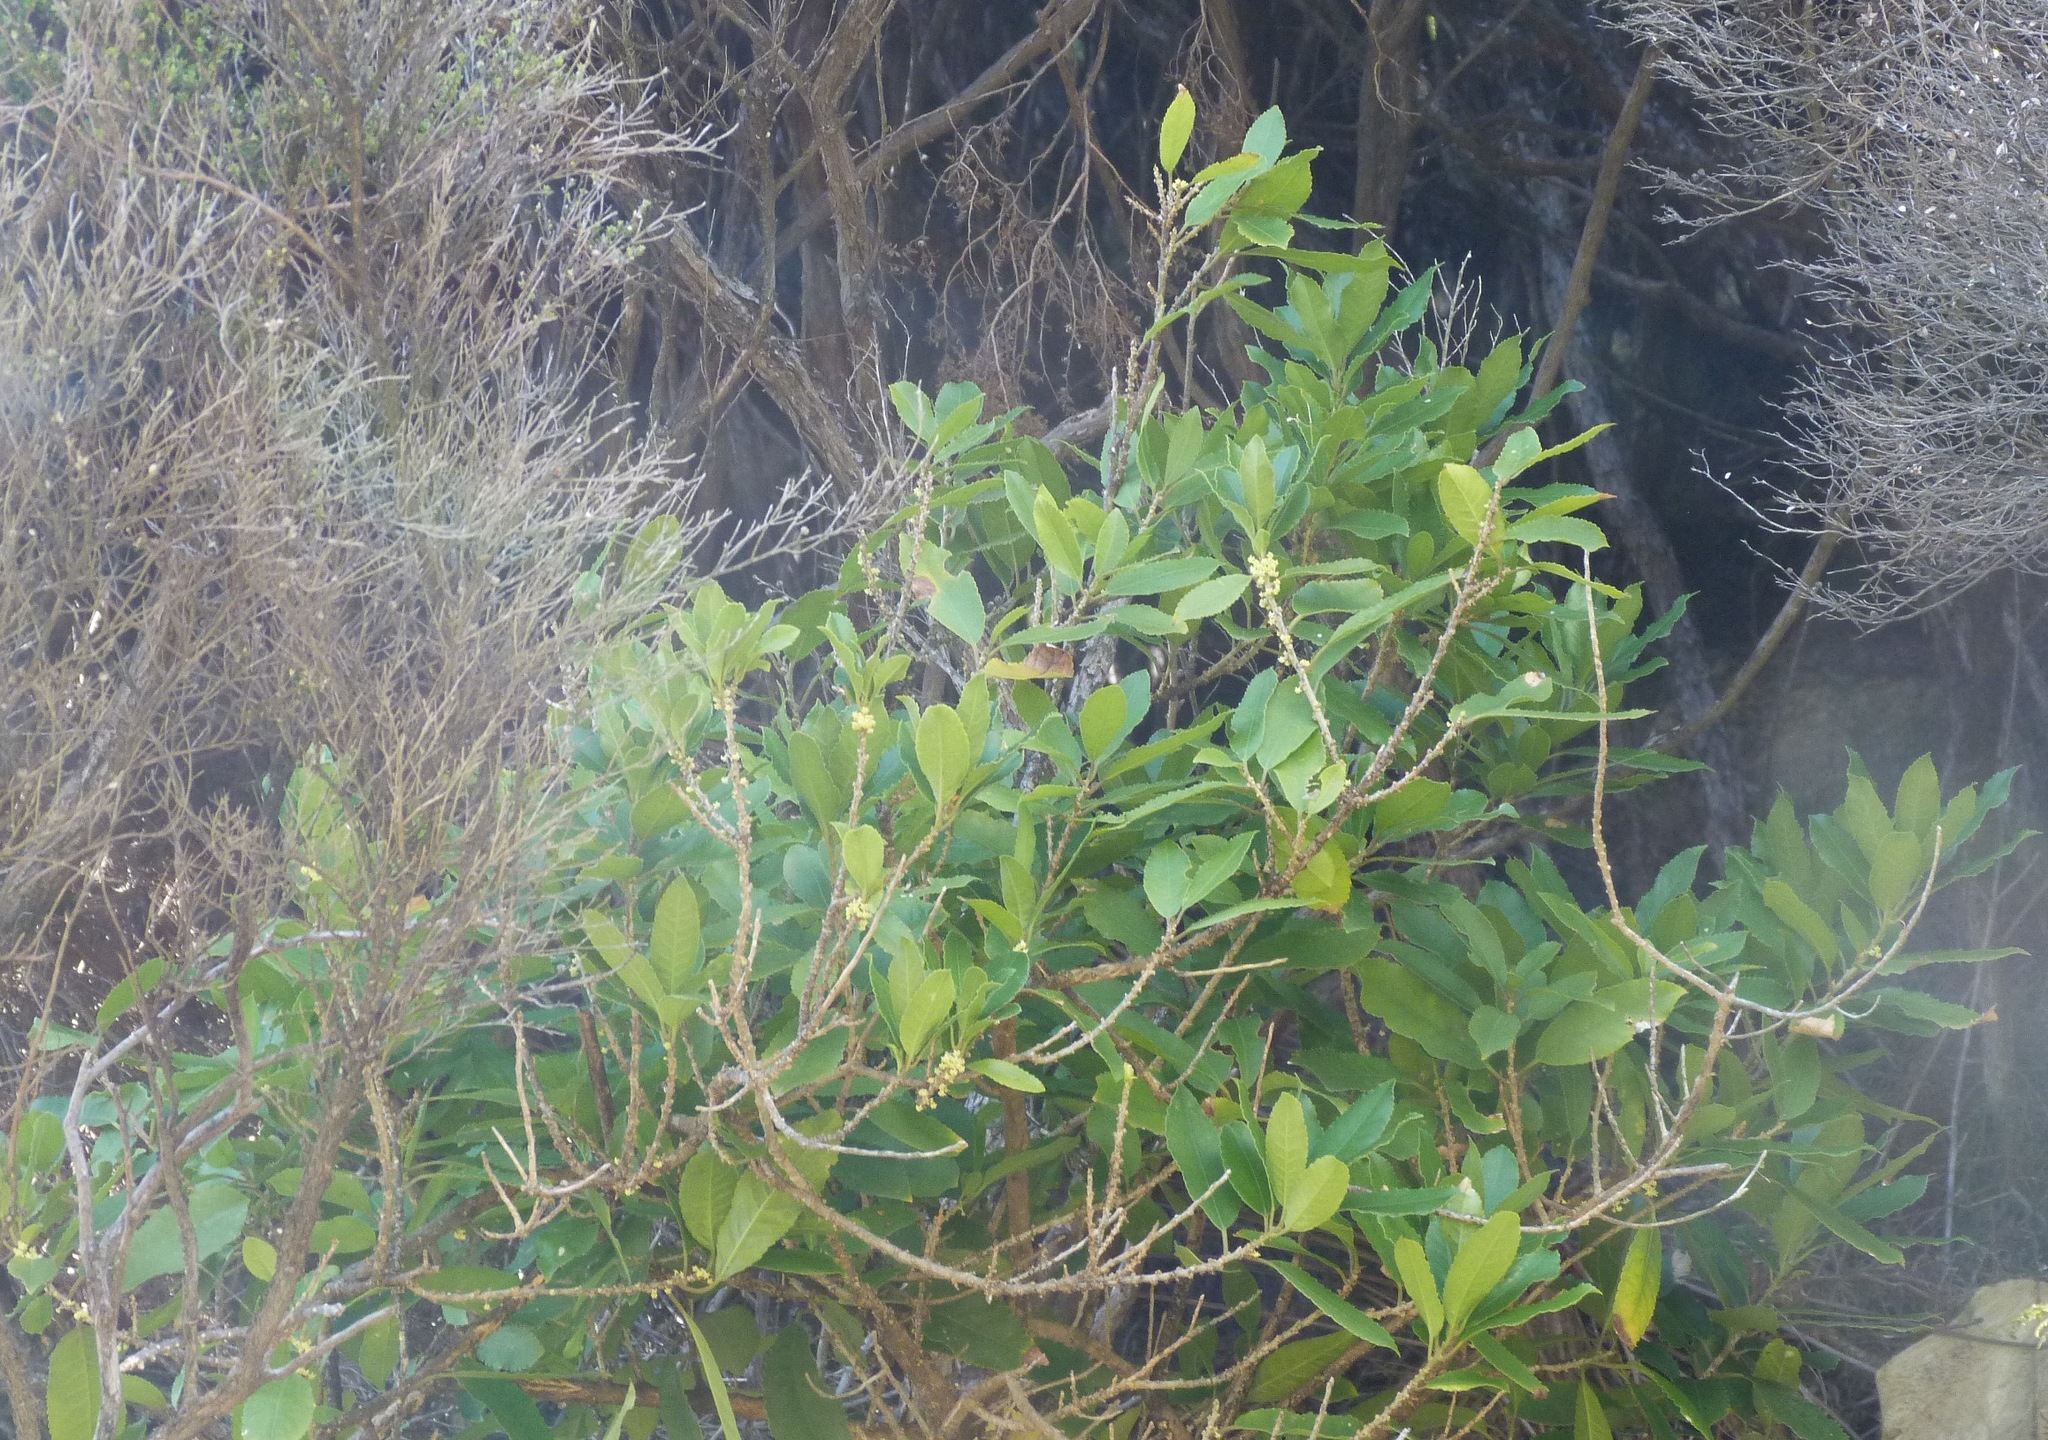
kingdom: Plantae
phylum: Tracheophyta
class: Magnoliopsida
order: Malpighiales
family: Violaceae
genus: Melicytus
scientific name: Melicytus ramiflorus
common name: Mahoe
